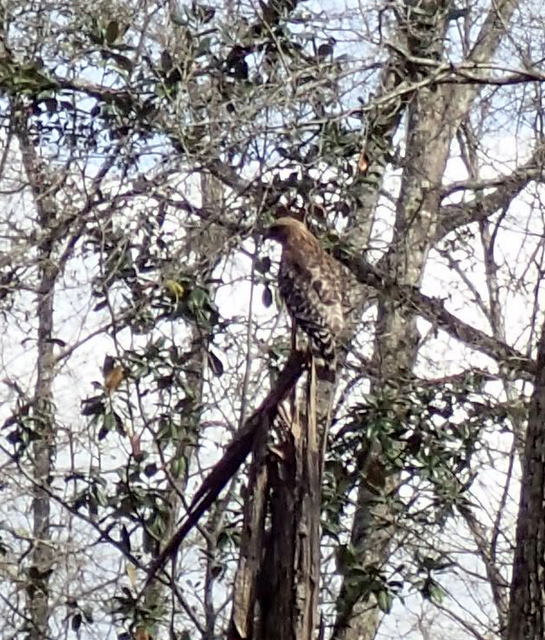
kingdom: Animalia
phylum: Chordata
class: Aves
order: Accipitriformes
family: Accipitridae
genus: Buteo
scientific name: Buteo lineatus
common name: Red-shouldered hawk
